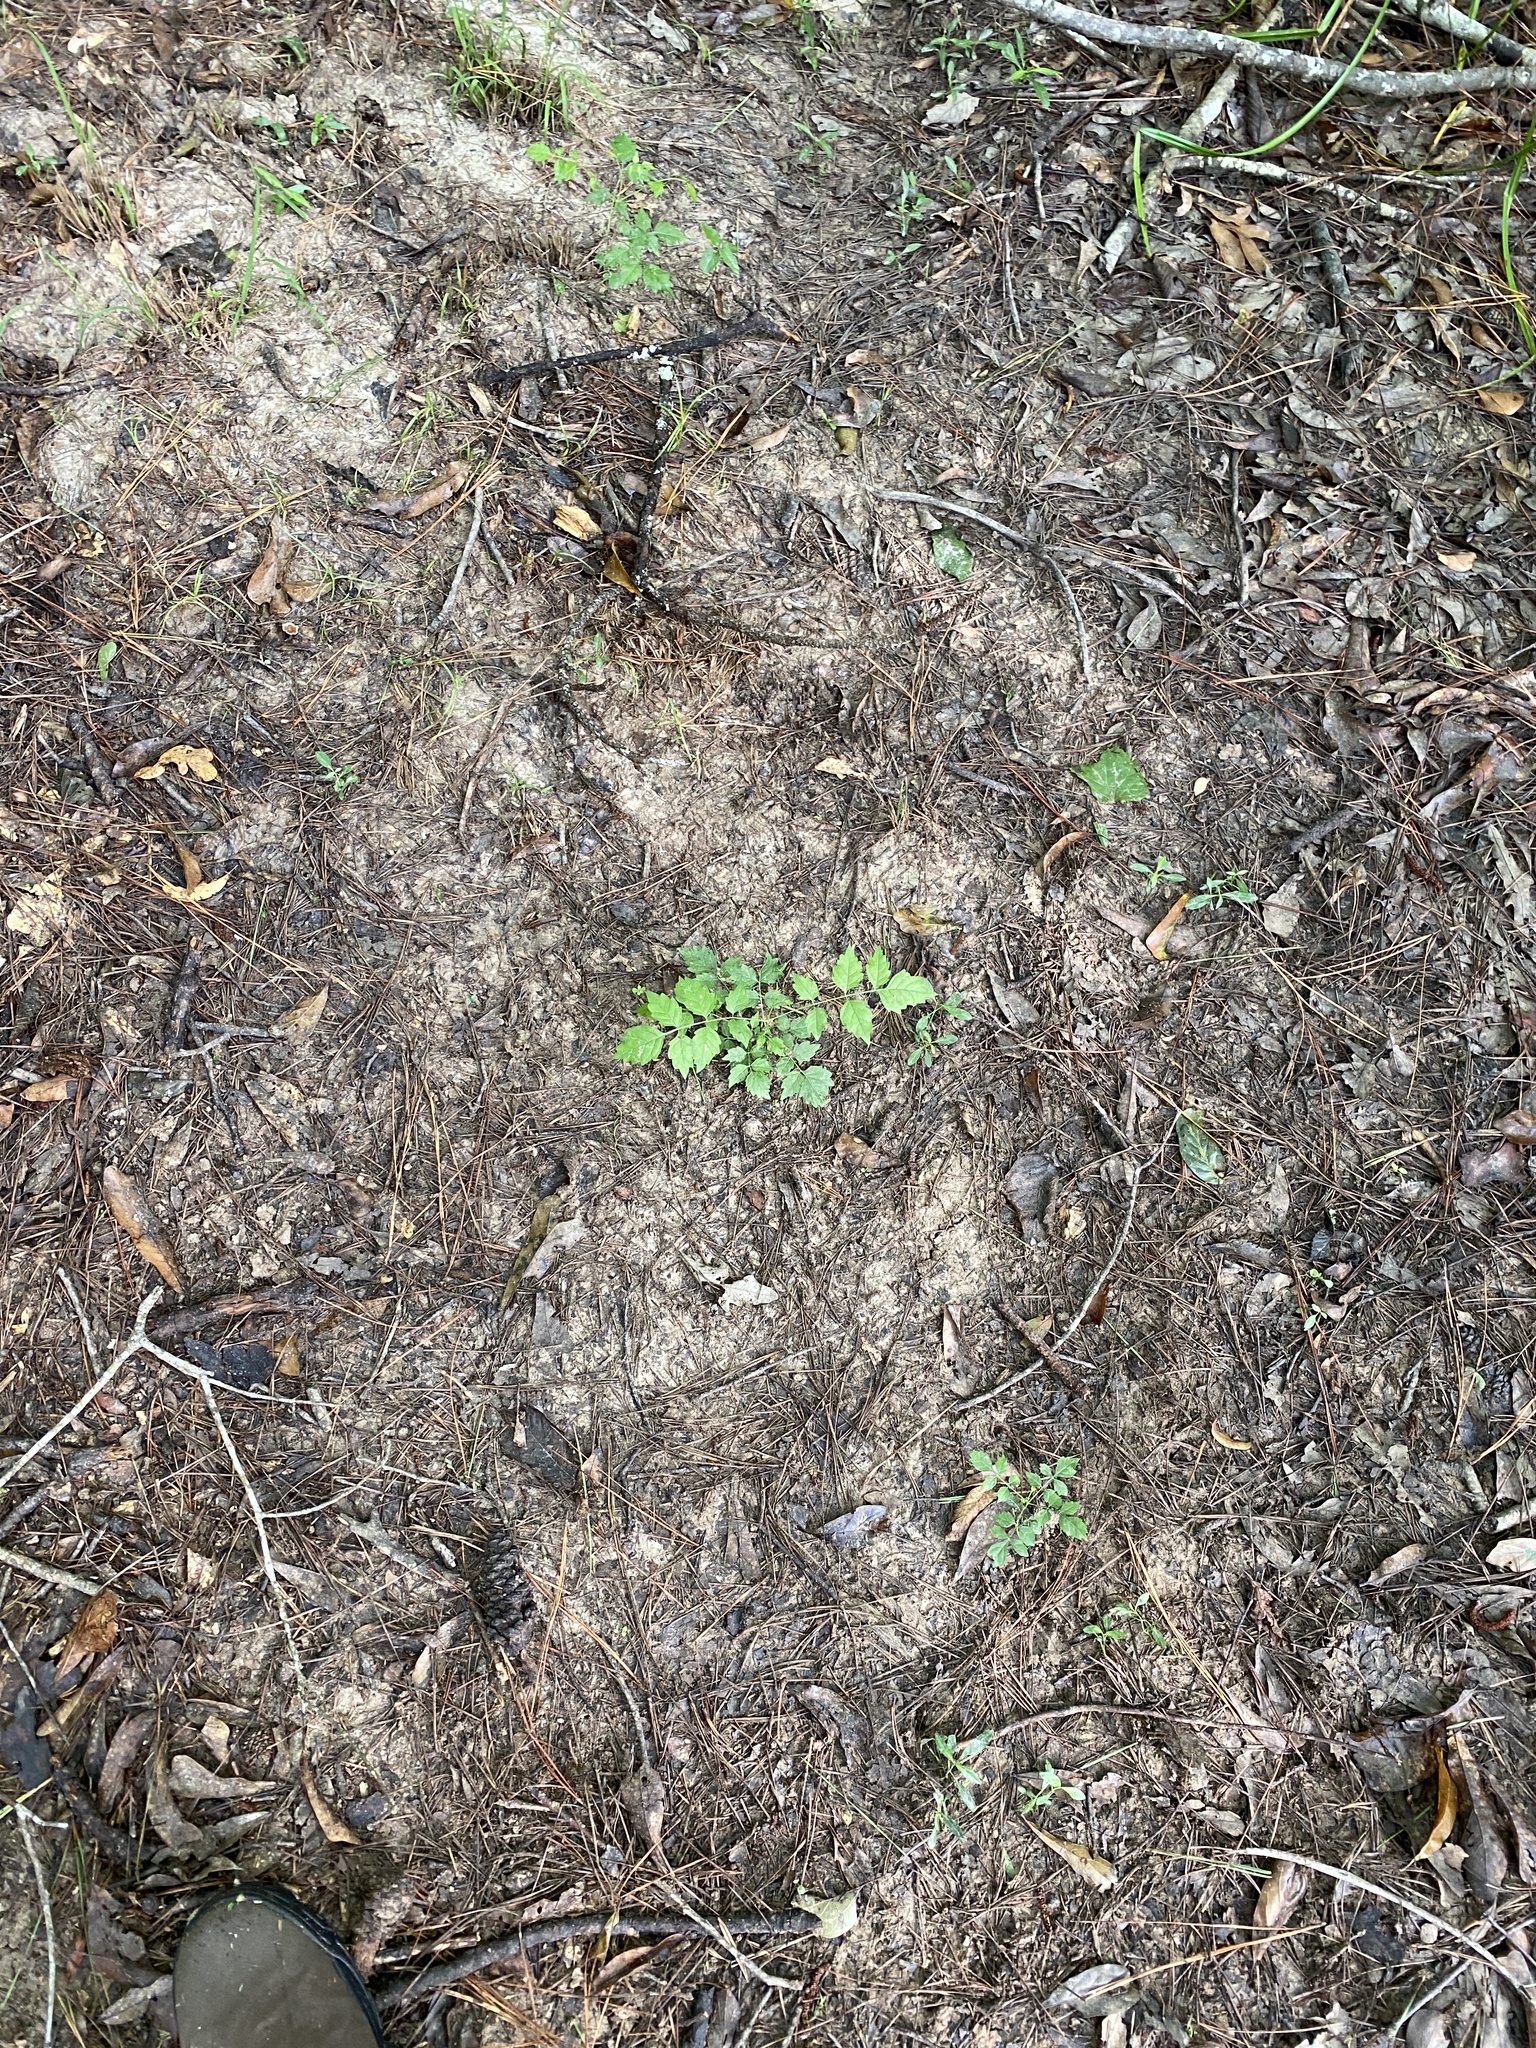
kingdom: Plantae
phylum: Tracheophyta
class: Magnoliopsida
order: Lamiales
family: Bignoniaceae
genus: Campsis
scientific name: Campsis radicans
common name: Trumpet-creeper
